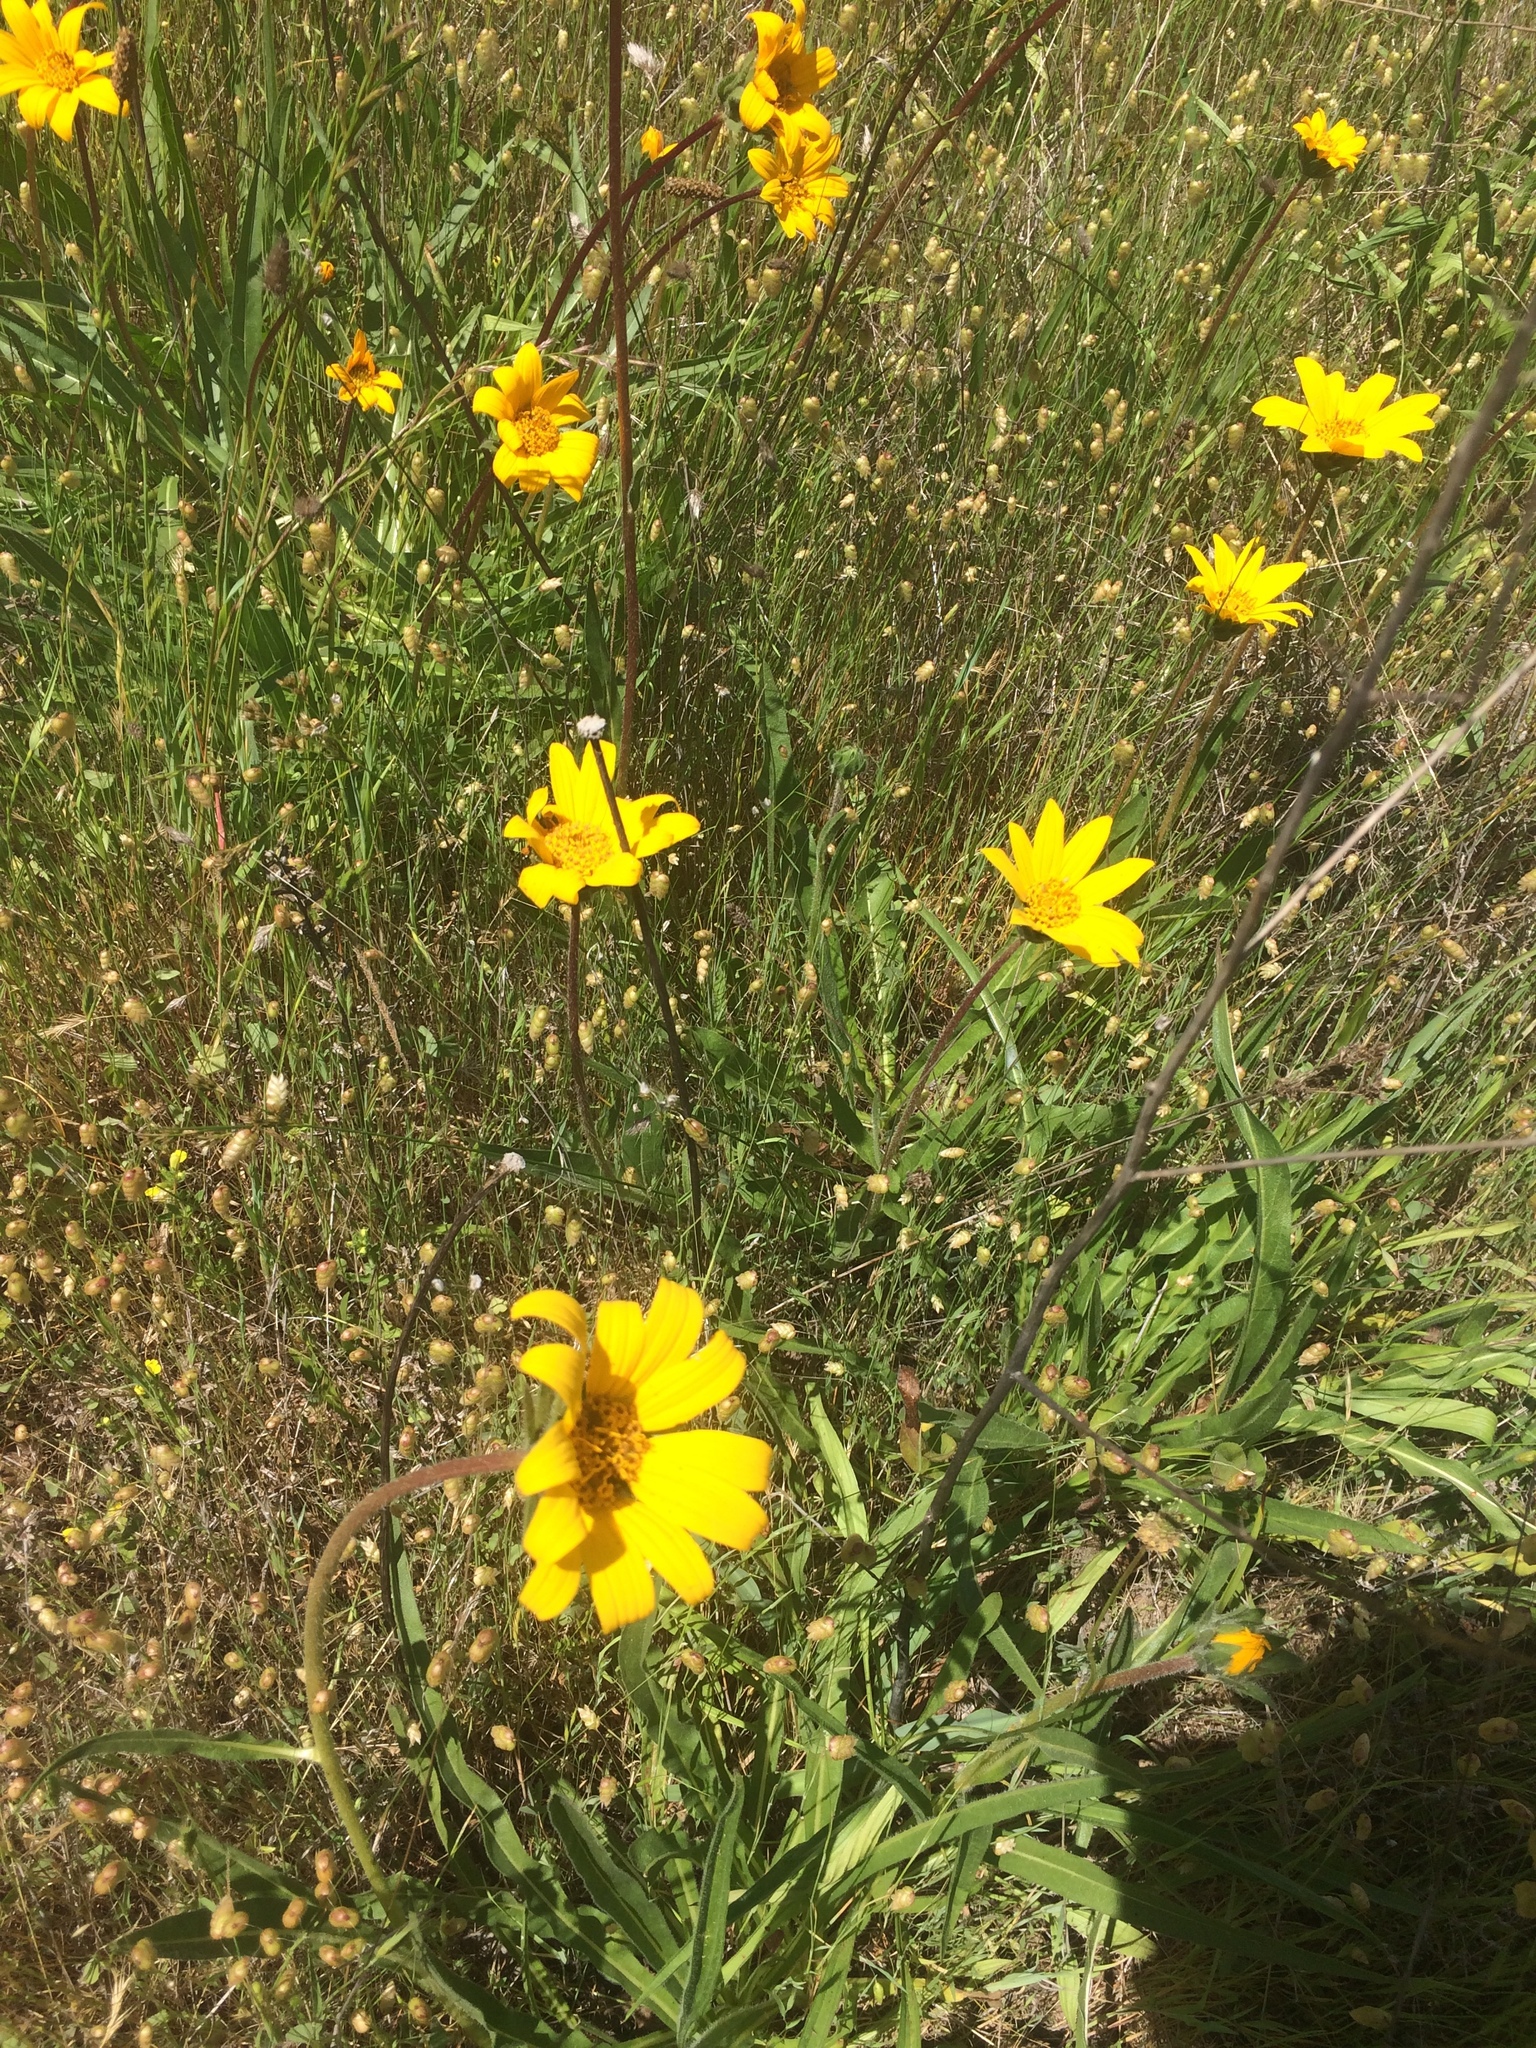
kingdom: Plantae
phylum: Tracheophyta
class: Magnoliopsida
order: Asterales
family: Asteraceae
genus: Wyethia
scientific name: Wyethia angustifolia
